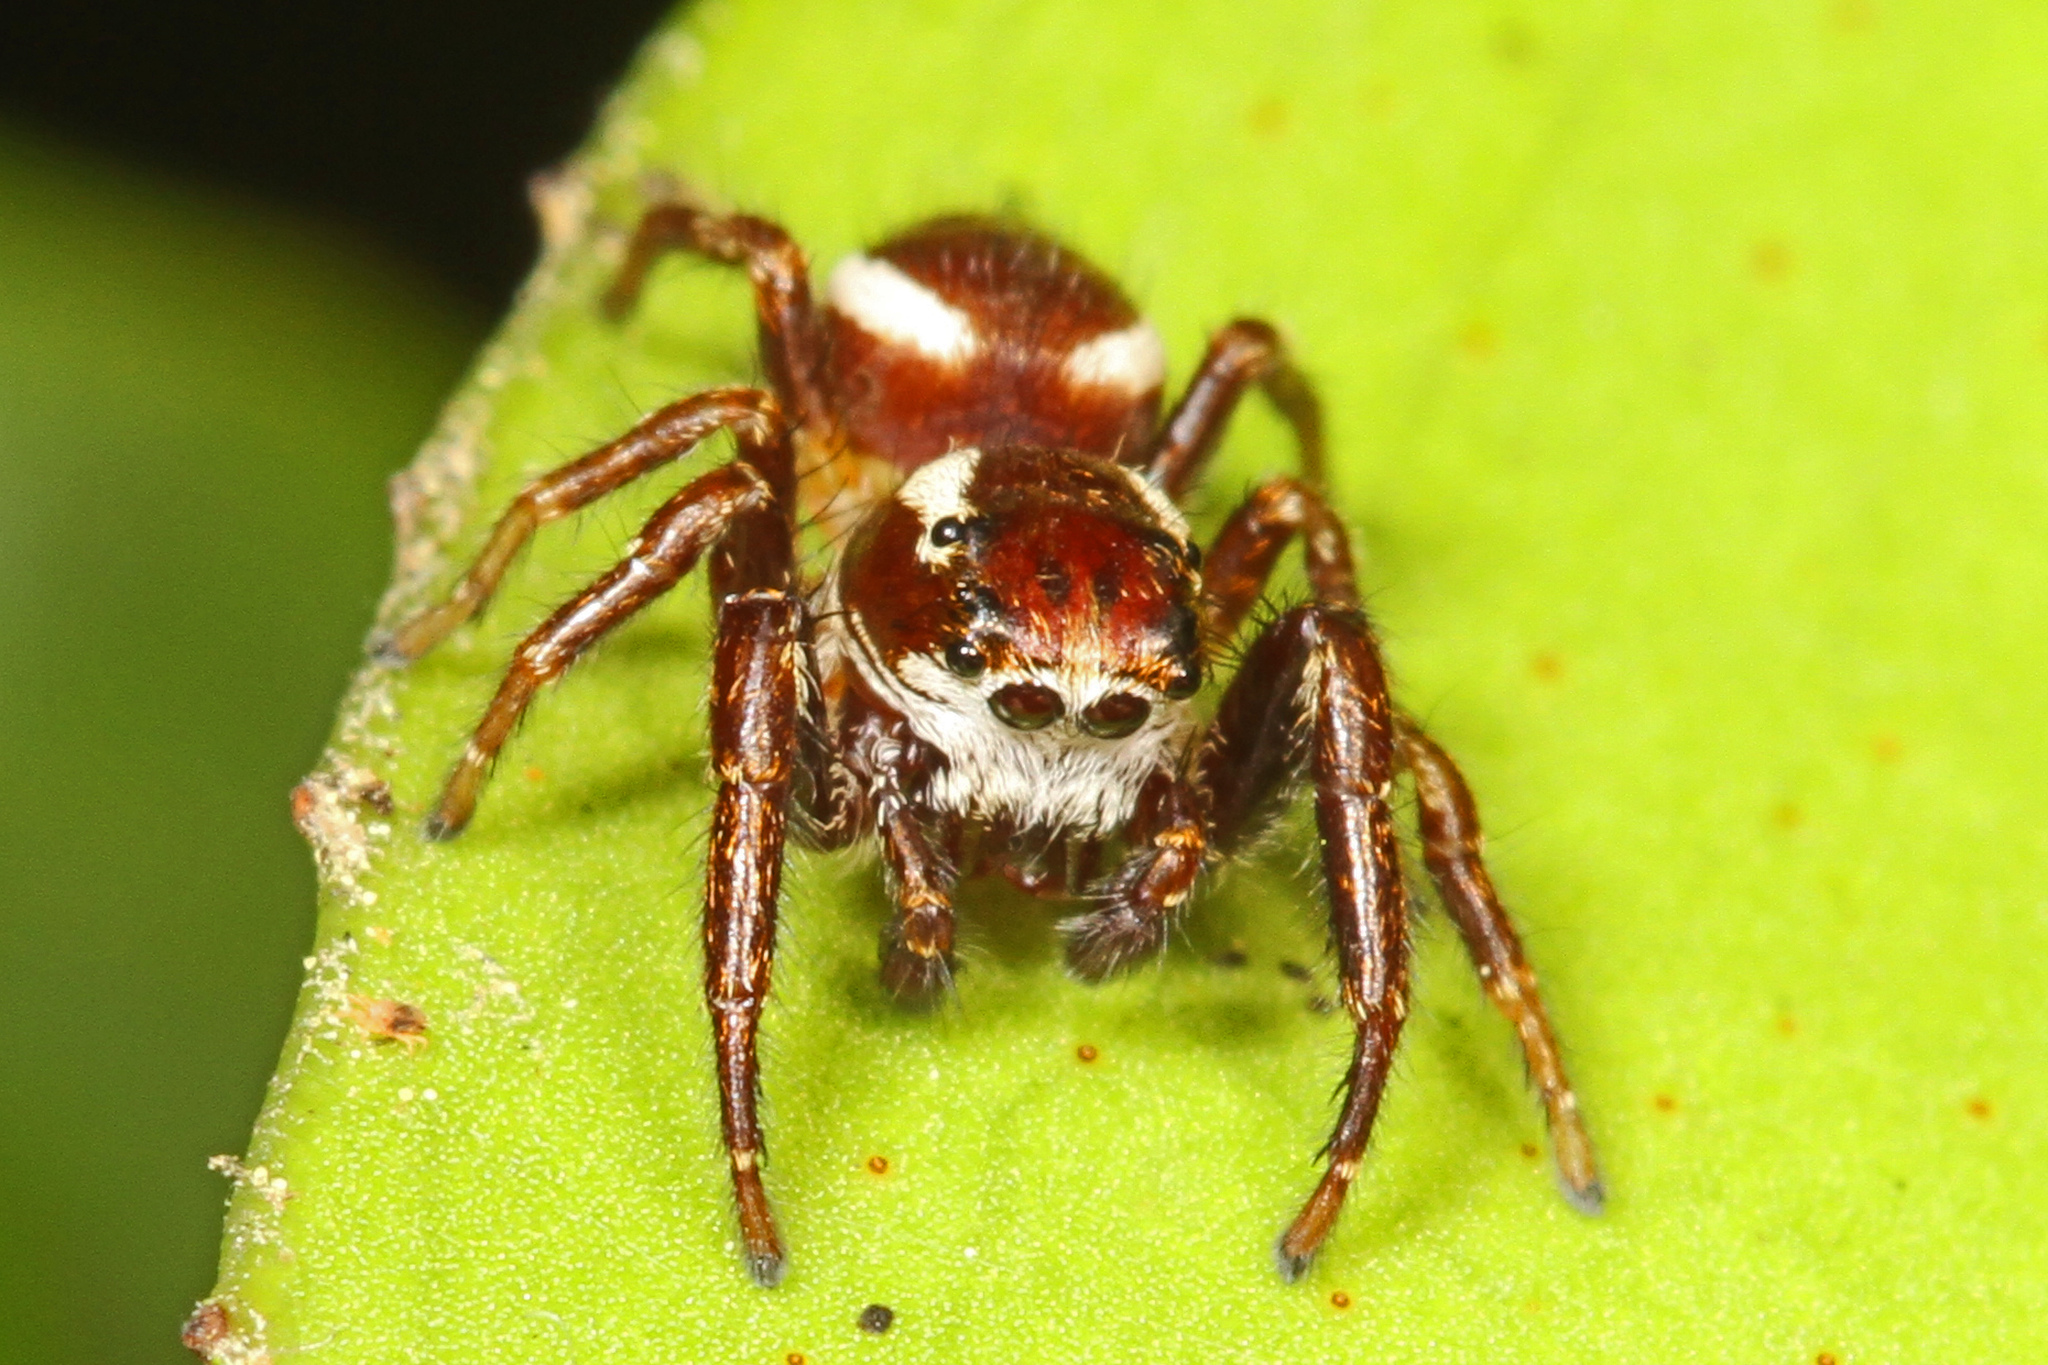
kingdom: Animalia
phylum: Arthropoda
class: Arachnida
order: Araneae
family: Salticidae
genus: Phanias
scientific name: Phanias albeolus
